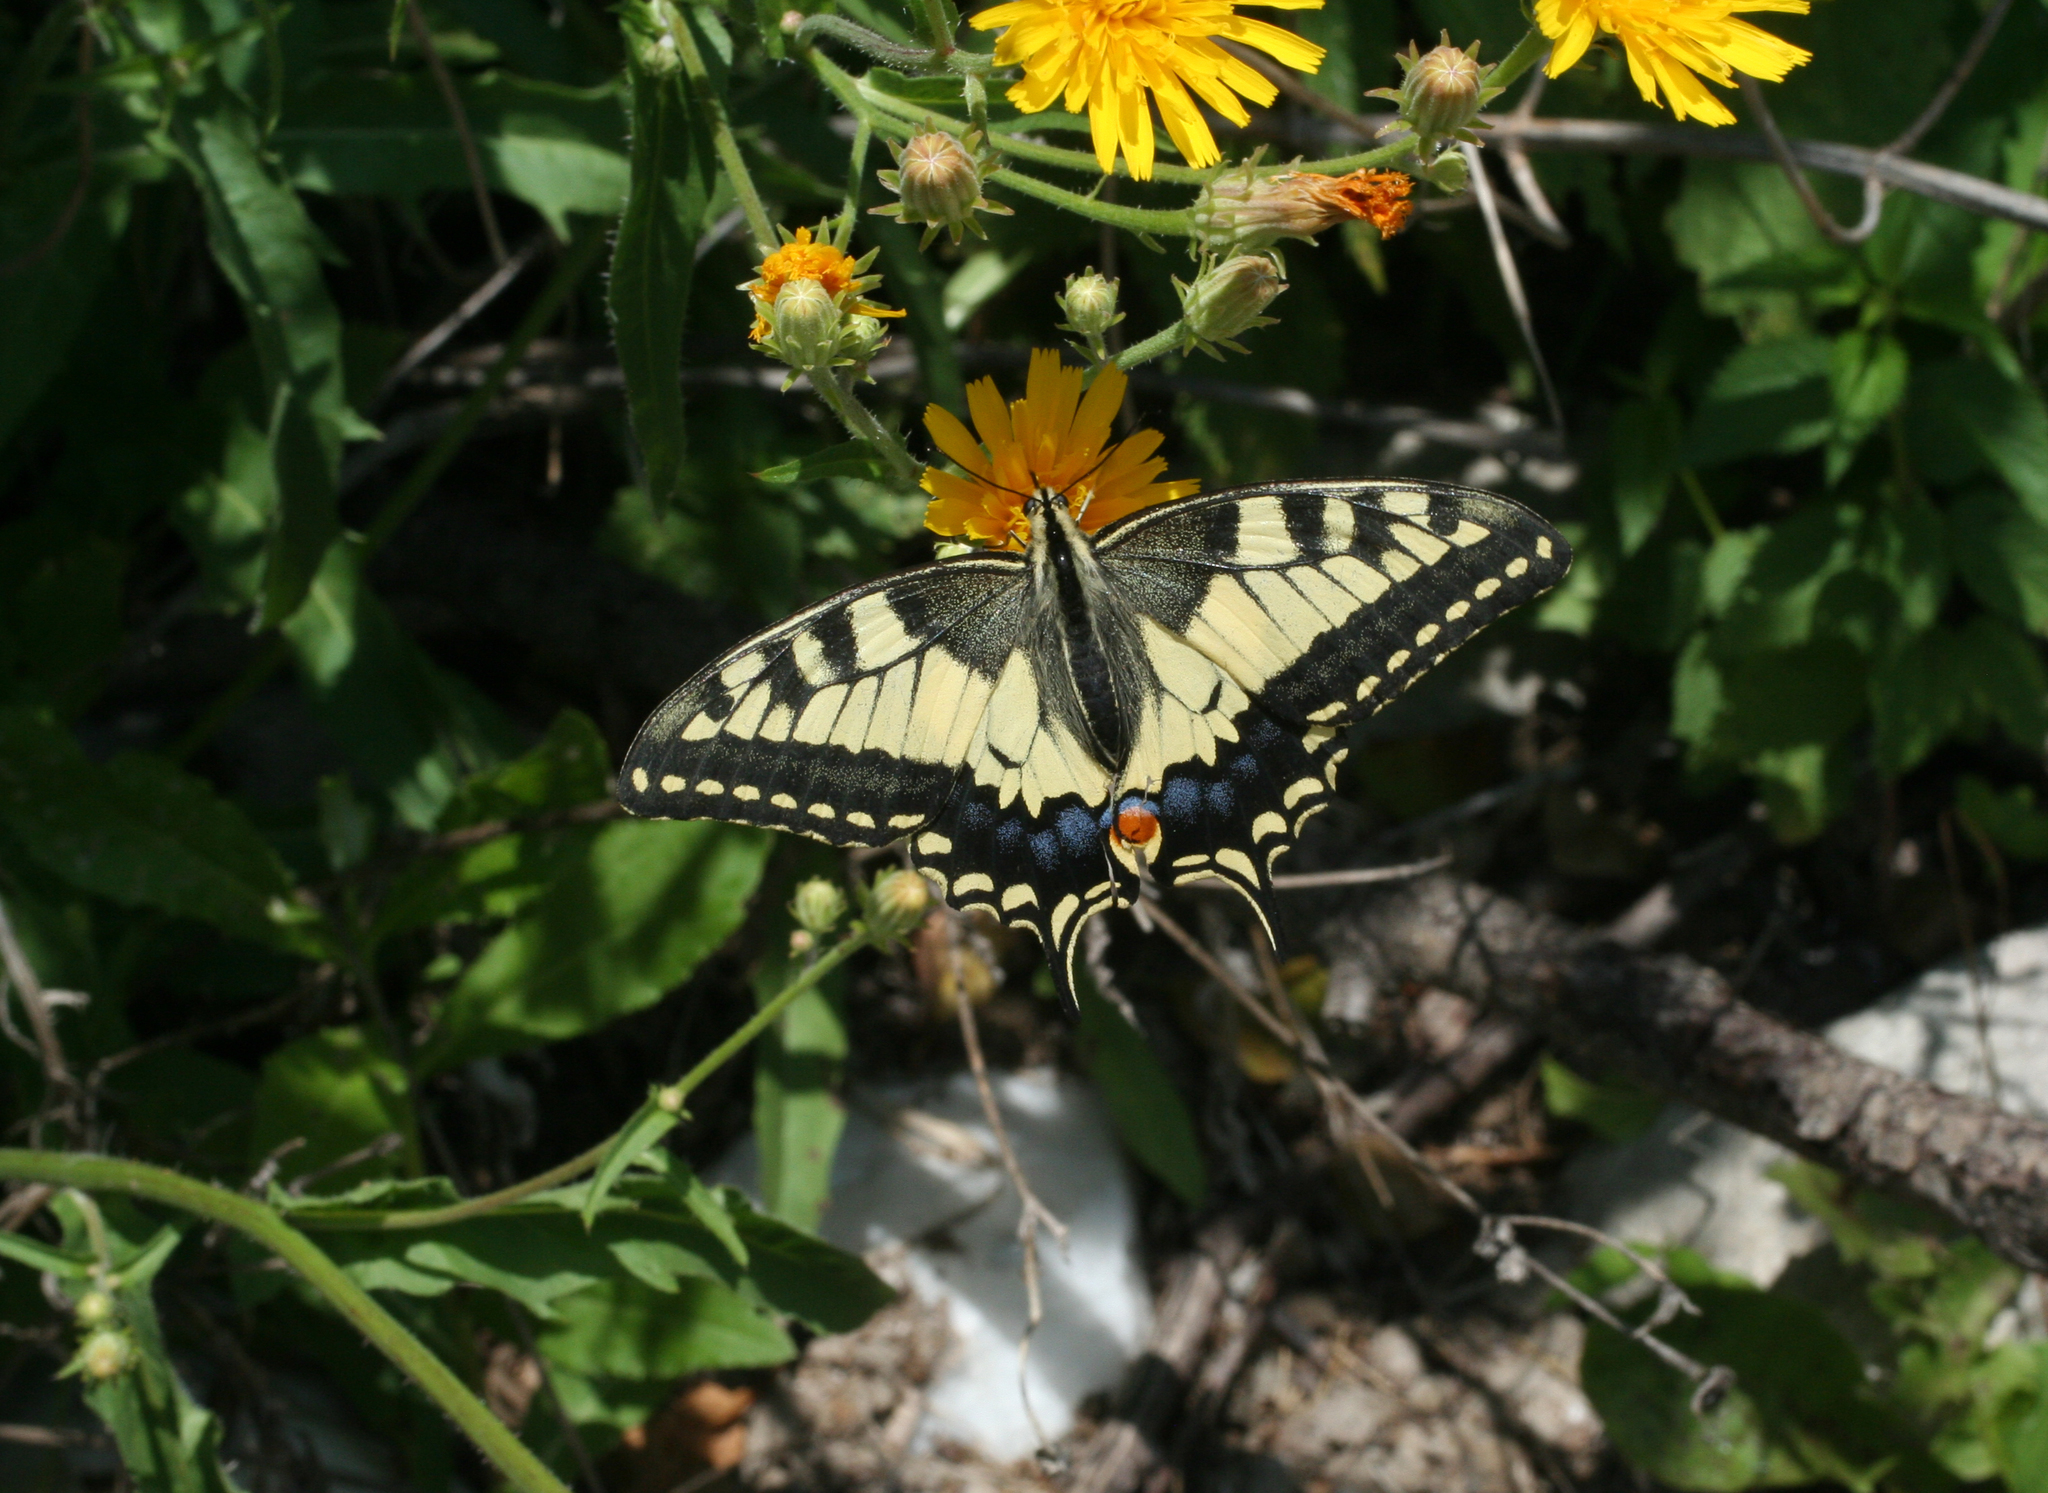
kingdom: Plantae
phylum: Tracheophyta
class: Magnoliopsida
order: Asterales
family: Asteraceae
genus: Sonchus
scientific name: Sonchus arvensis
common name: Perennial sow-thistle
